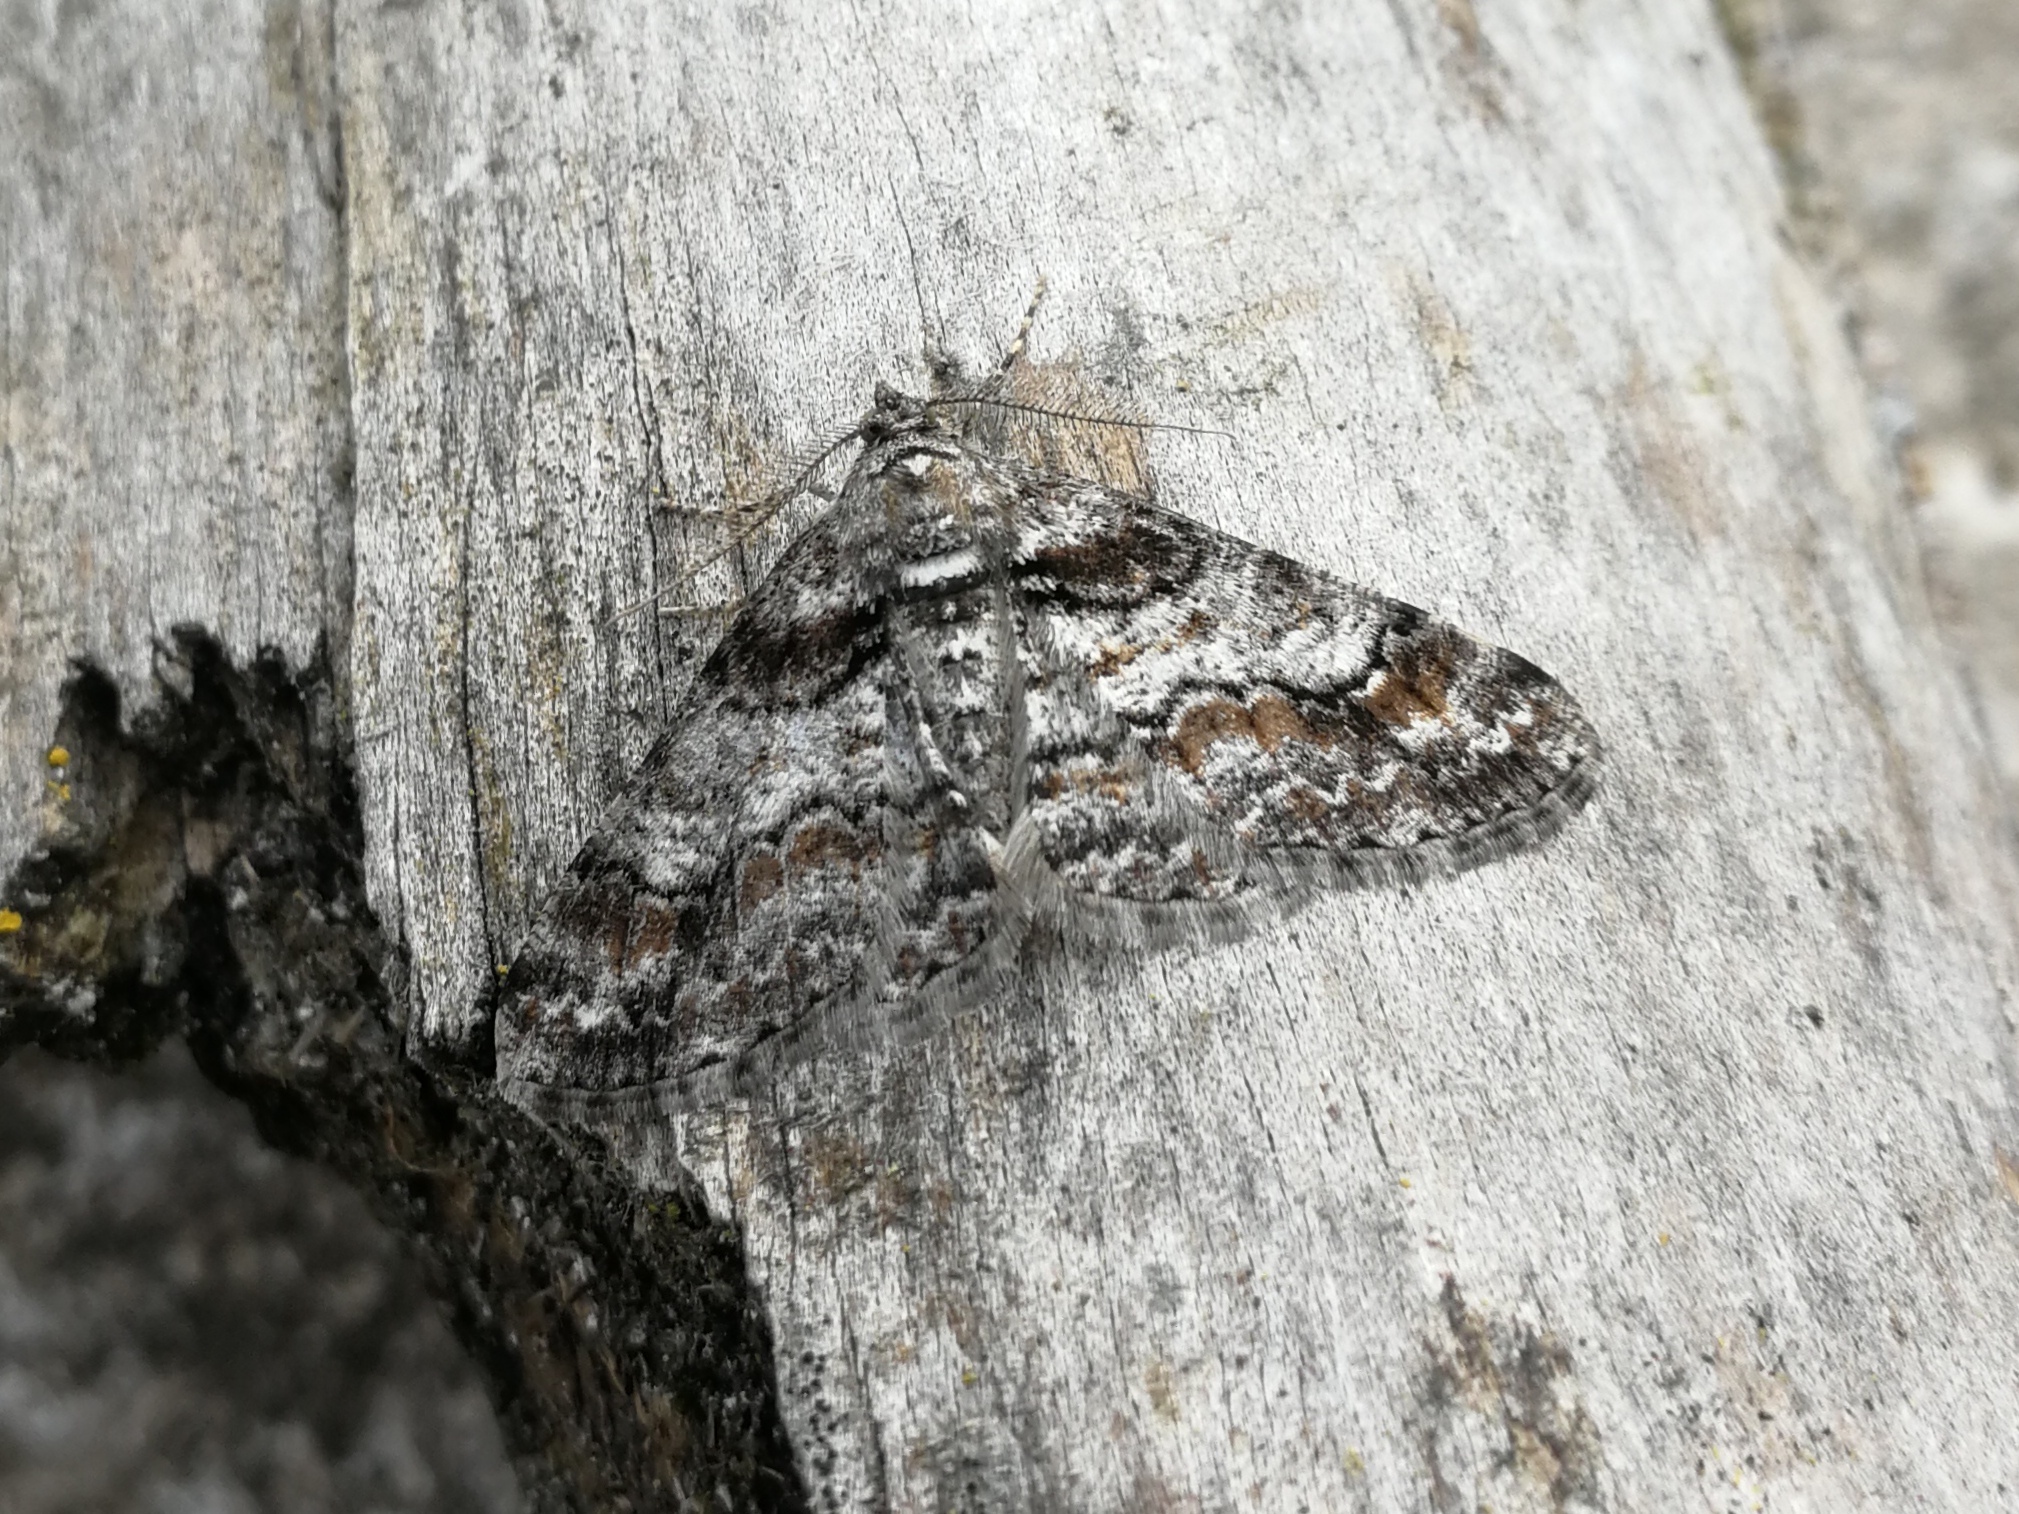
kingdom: Animalia
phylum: Arthropoda
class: Insecta
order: Lepidoptera
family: Geometridae
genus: Cleora
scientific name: Cleora cinctaria
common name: Ringed carpet
